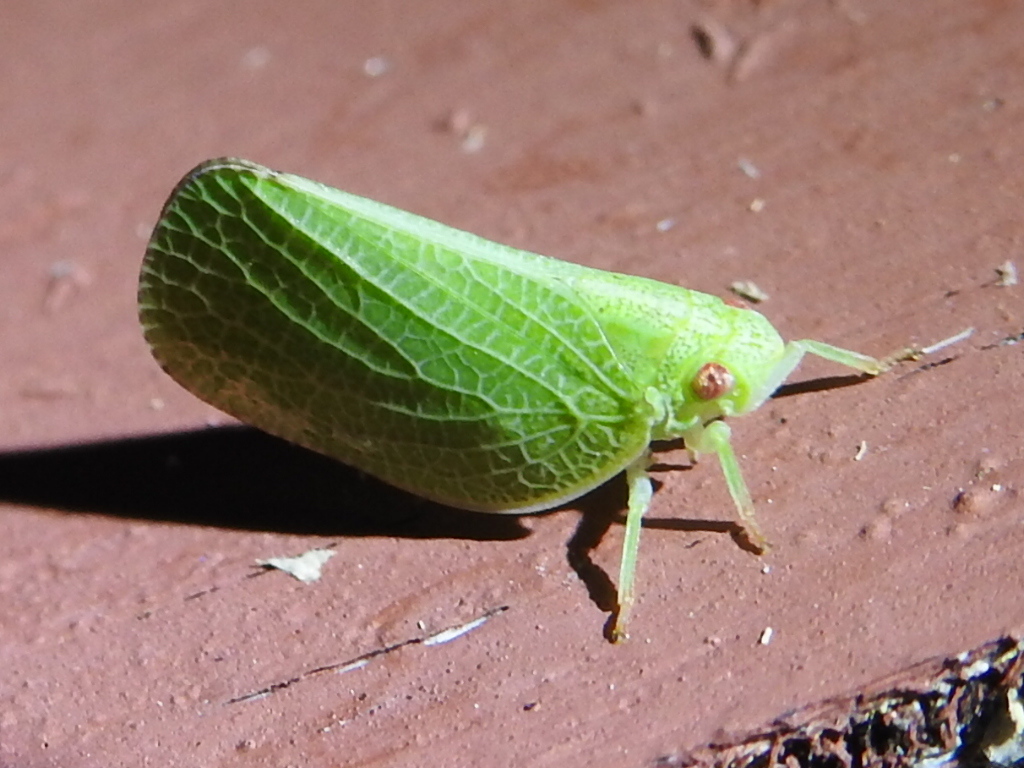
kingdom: Animalia
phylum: Arthropoda
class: Insecta
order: Hemiptera
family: Acanaloniidae
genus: Acanalonia
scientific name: Acanalonia conica
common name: Green cone-headed planthopper
